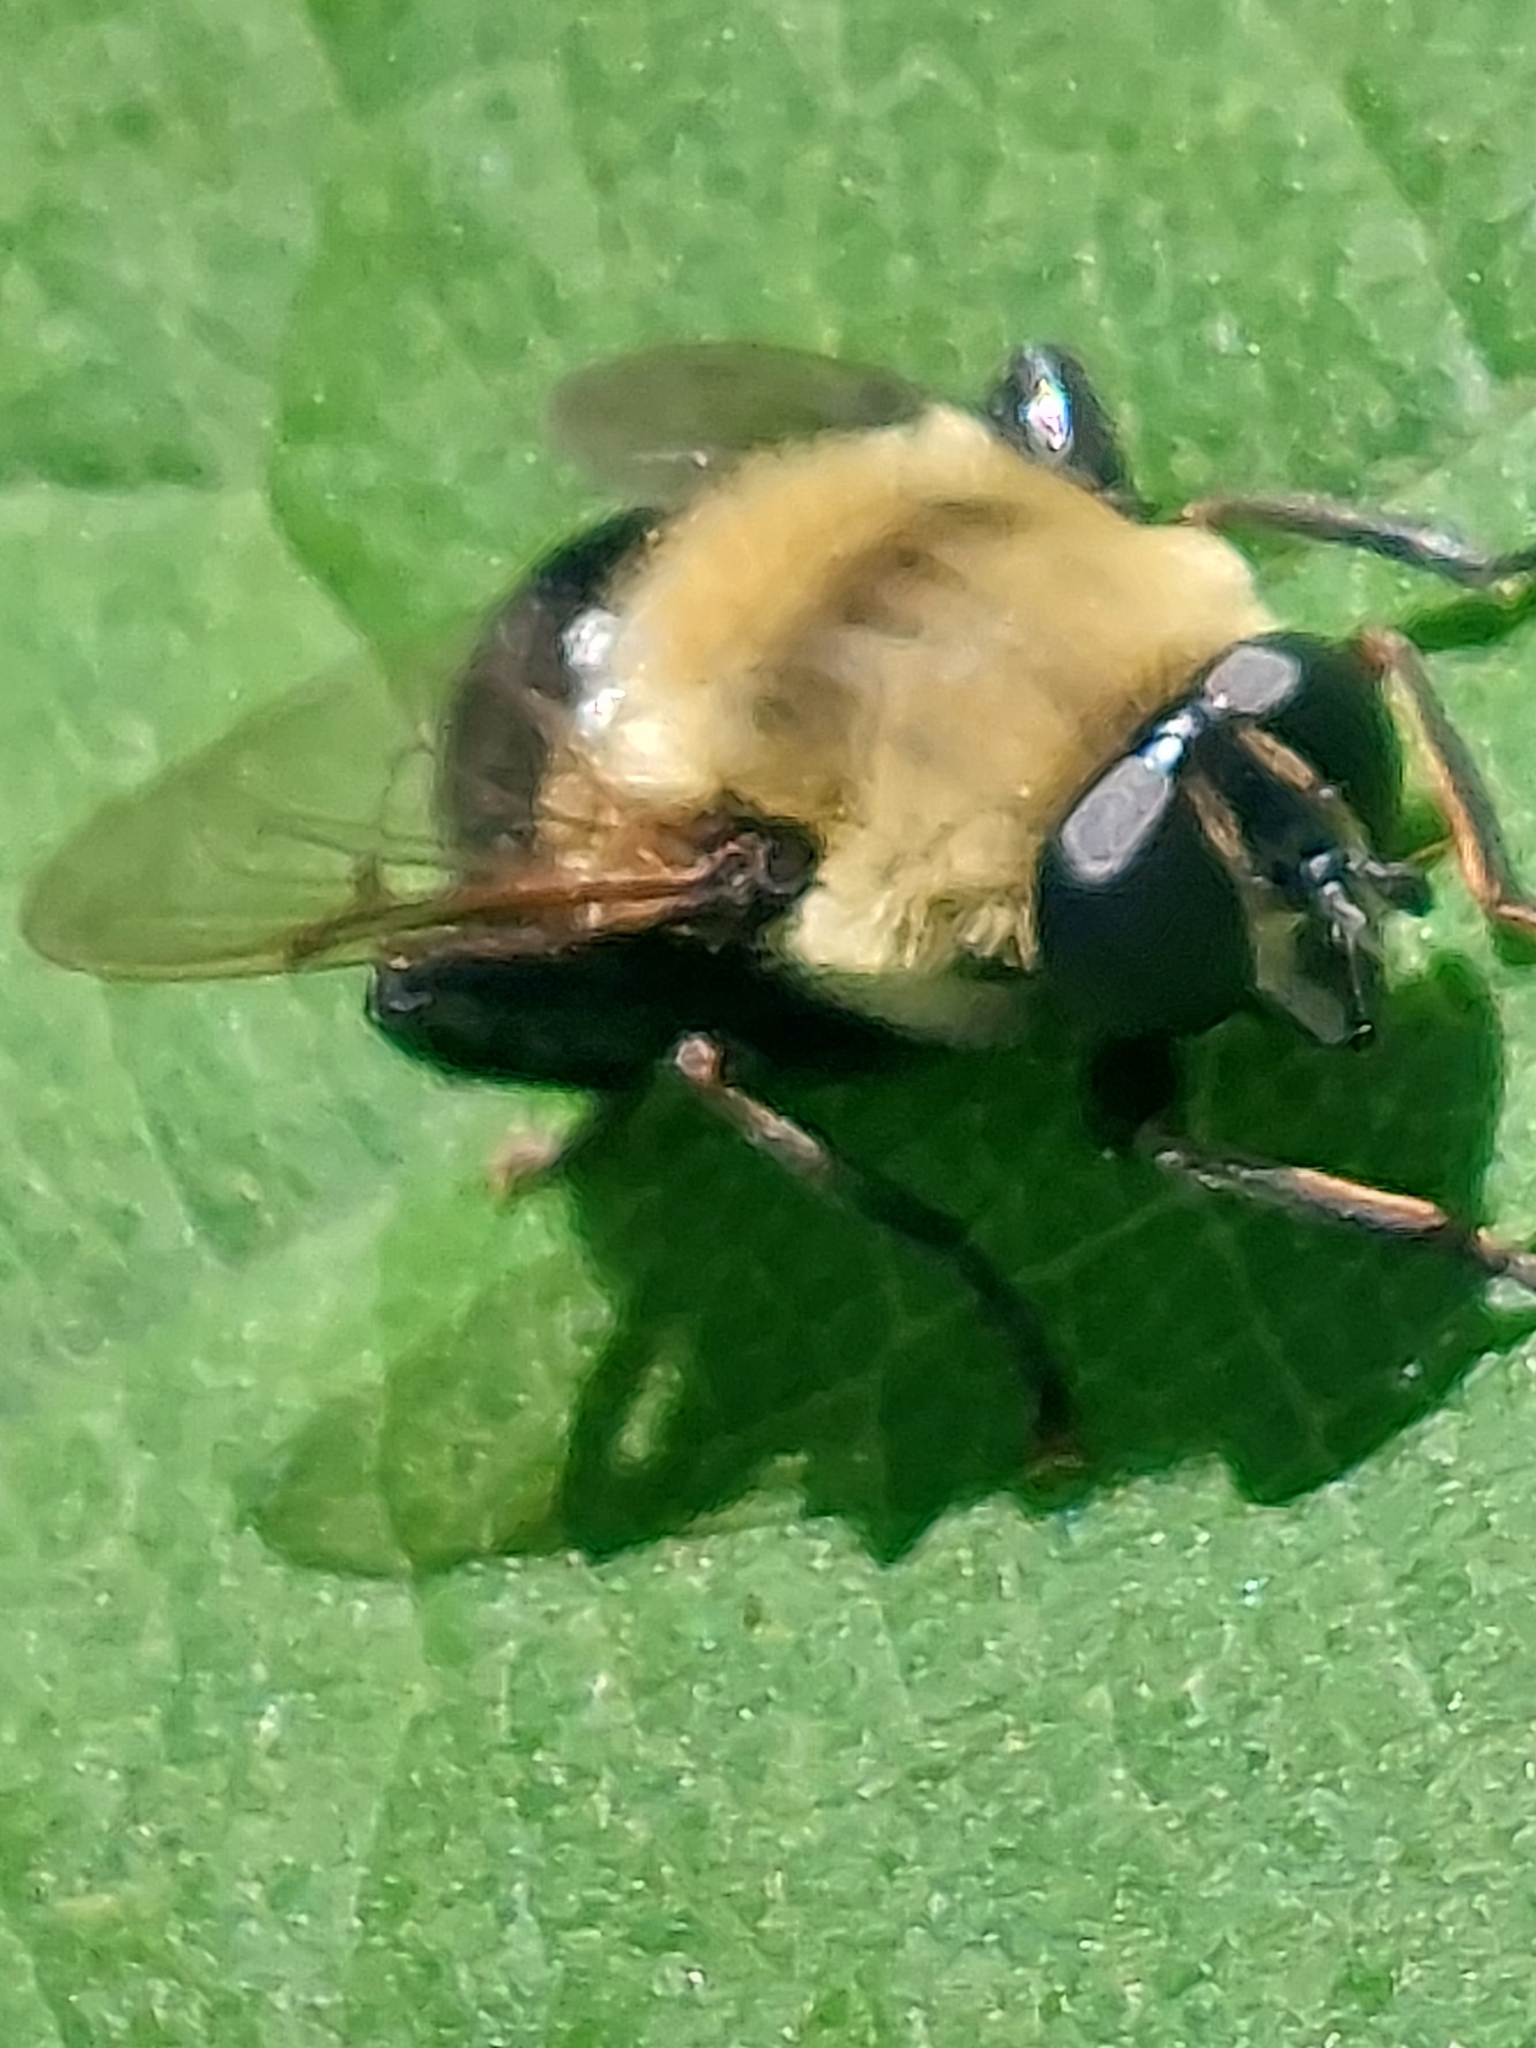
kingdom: Animalia
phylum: Arthropoda
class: Insecta
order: Diptera
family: Syrphidae
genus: Imatisma
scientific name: Imatisma bautias
